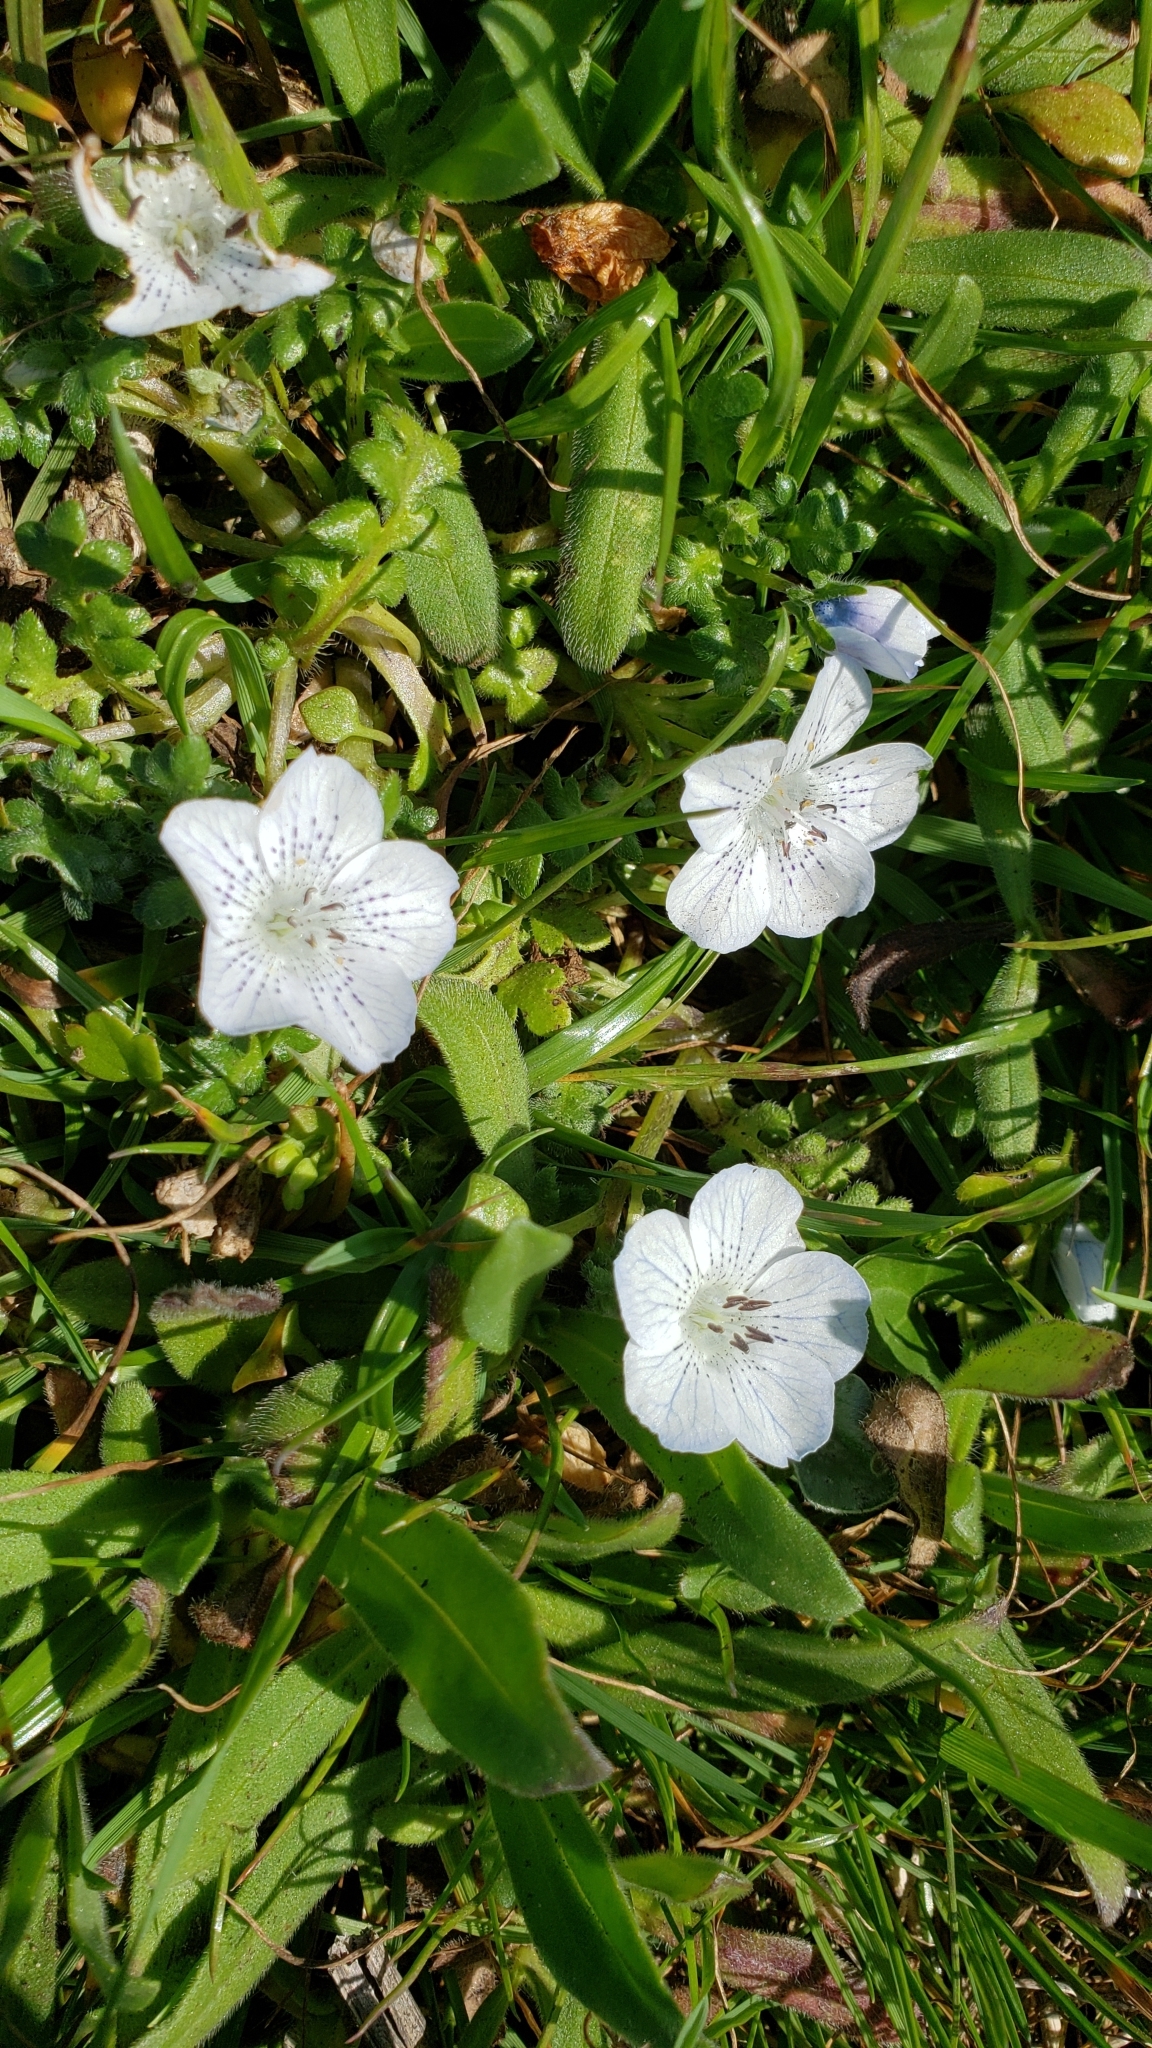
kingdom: Plantae
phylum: Tracheophyta
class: Magnoliopsida
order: Boraginales
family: Hydrophyllaceae
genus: Nemophila
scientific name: Nemophila menziesii
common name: Baby's-blue-eyes
